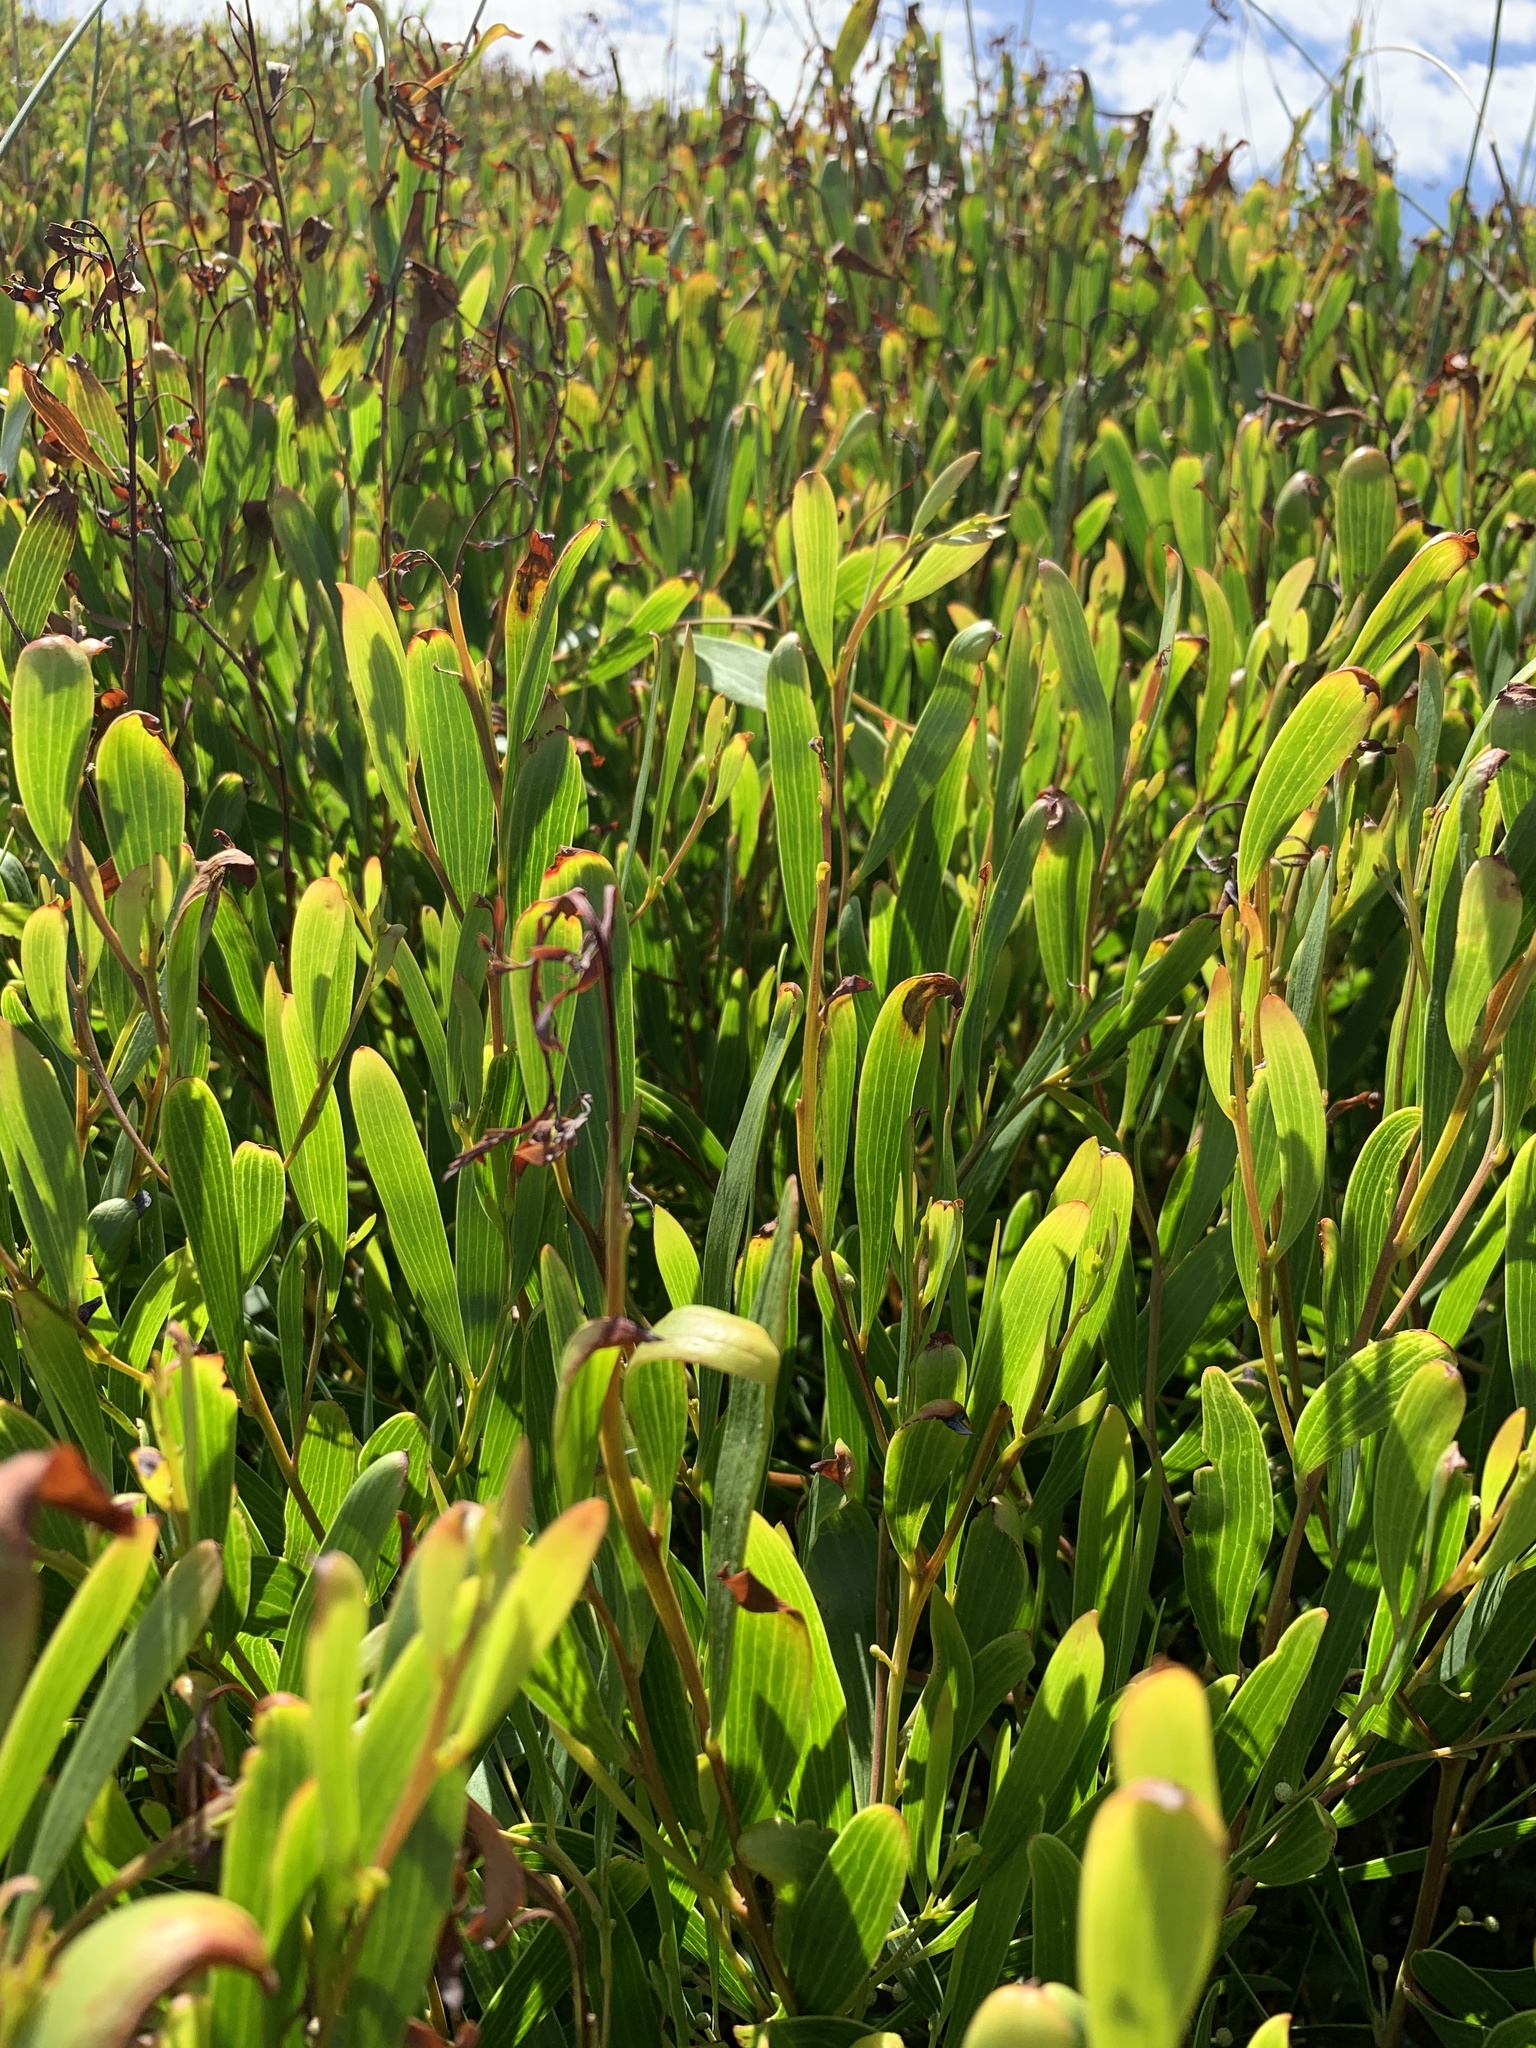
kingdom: Plantae
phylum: Tracheophyta
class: Magnoliopsida
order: Fabales
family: Fabaceae
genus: Acacia
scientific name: Acacia cyclops
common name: Coastal wattle
